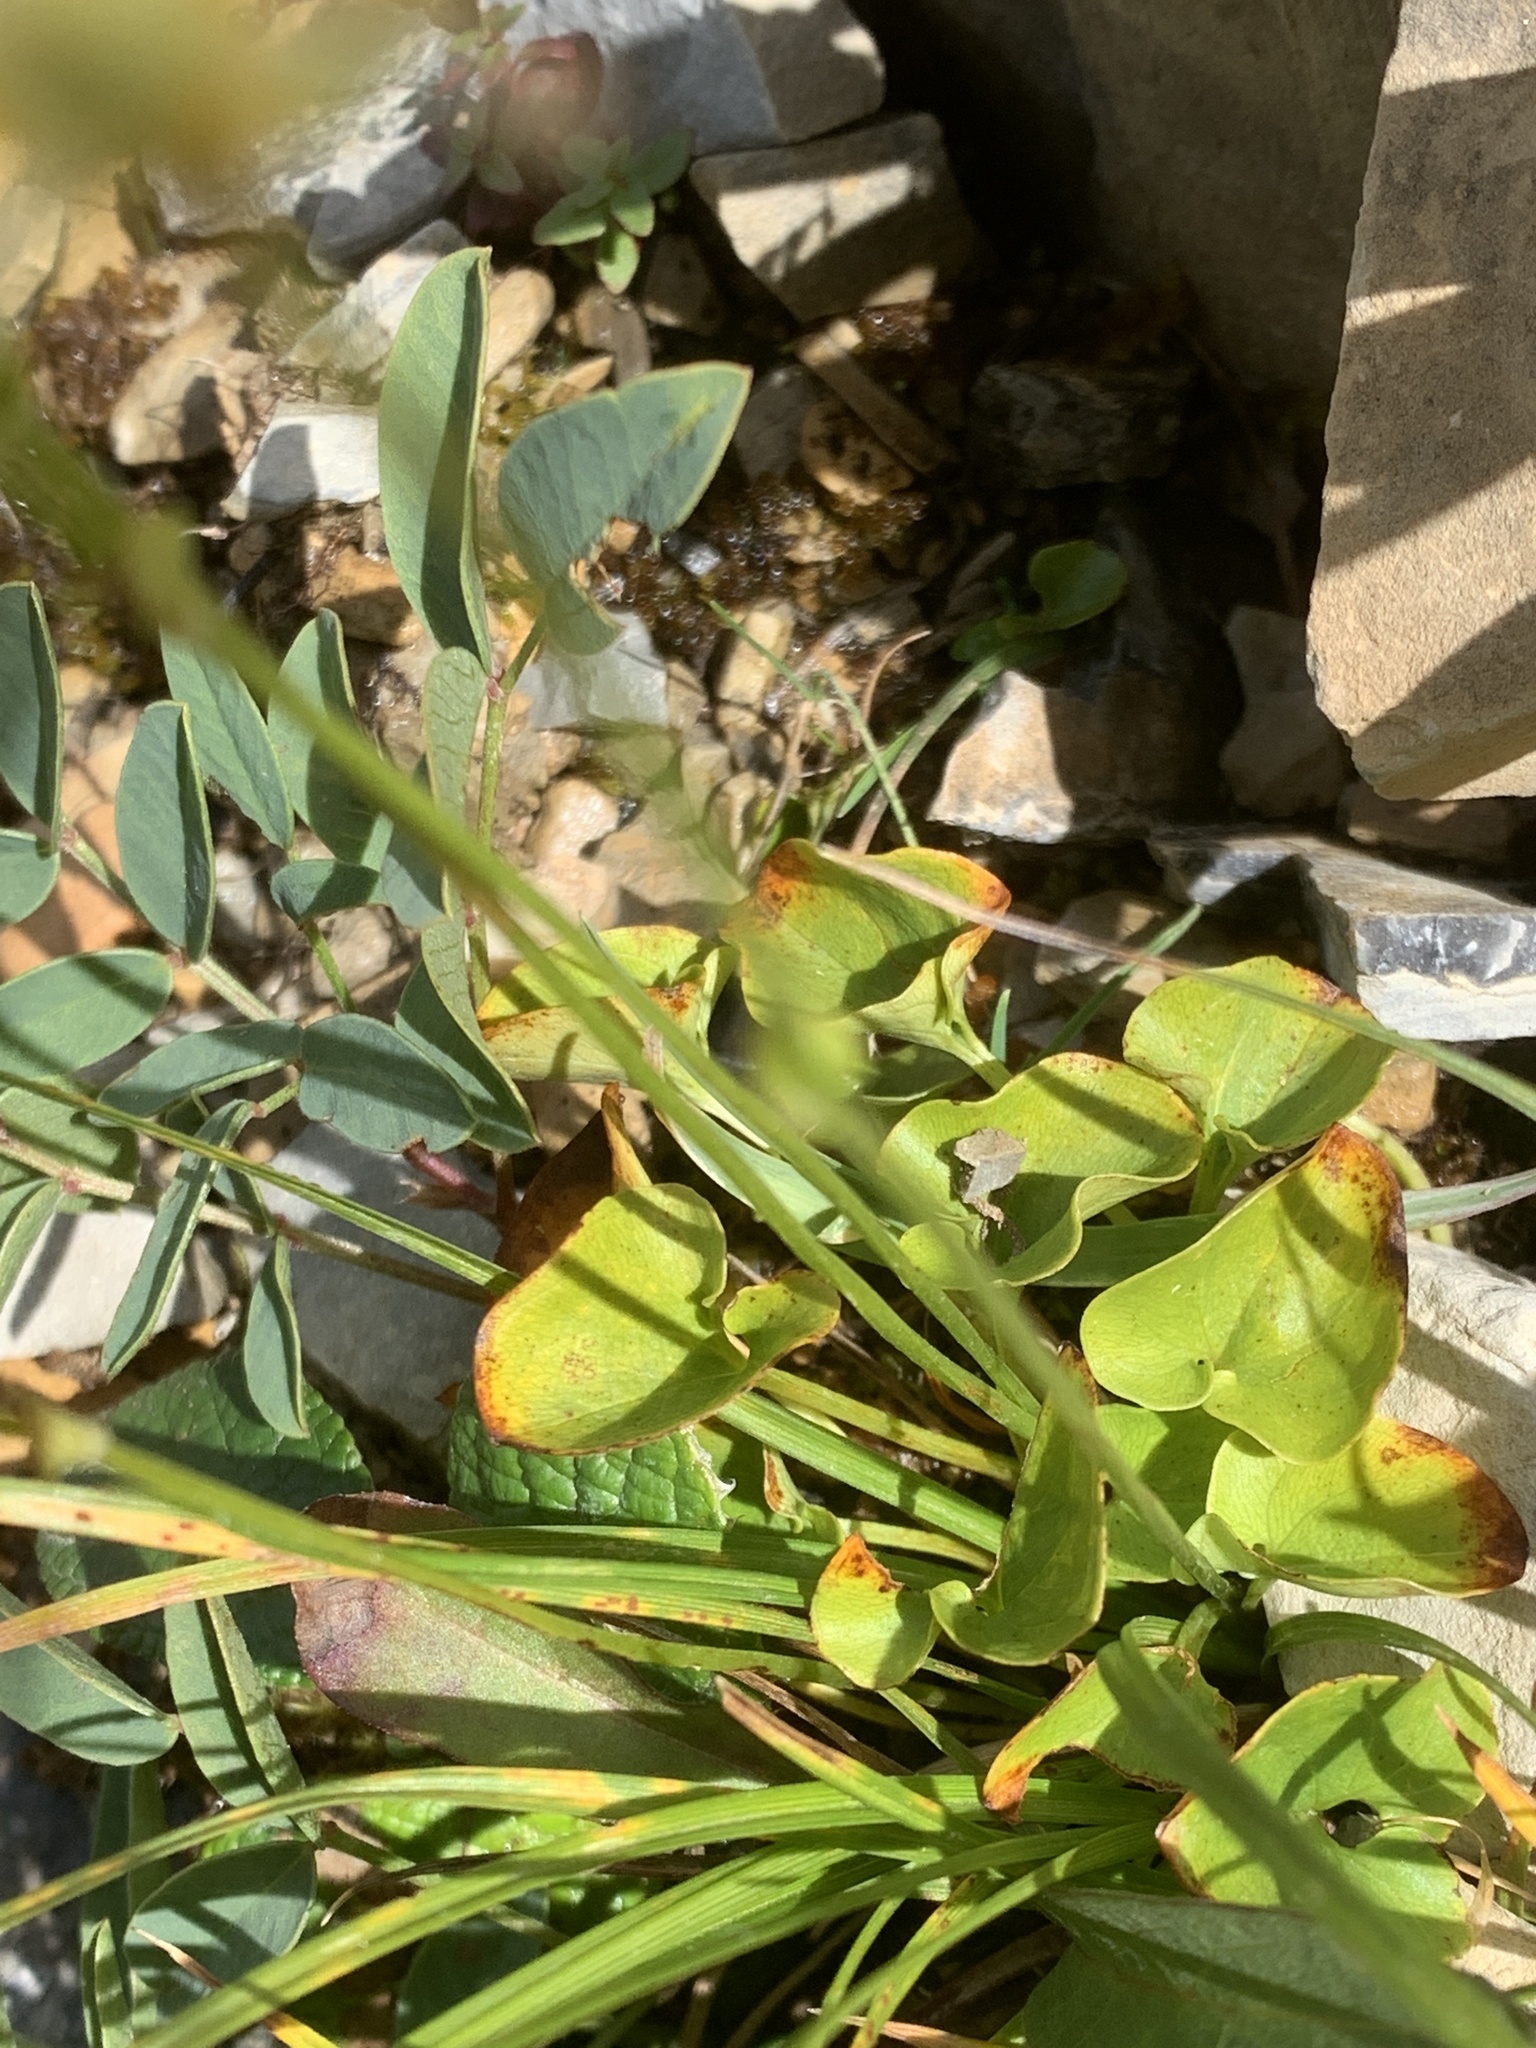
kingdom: Plantae
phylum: Tracheophyta
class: Magnoliopsida
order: Celastrales
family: Parnassiaceae
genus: Parnassia
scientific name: Parnassia fimbriata
